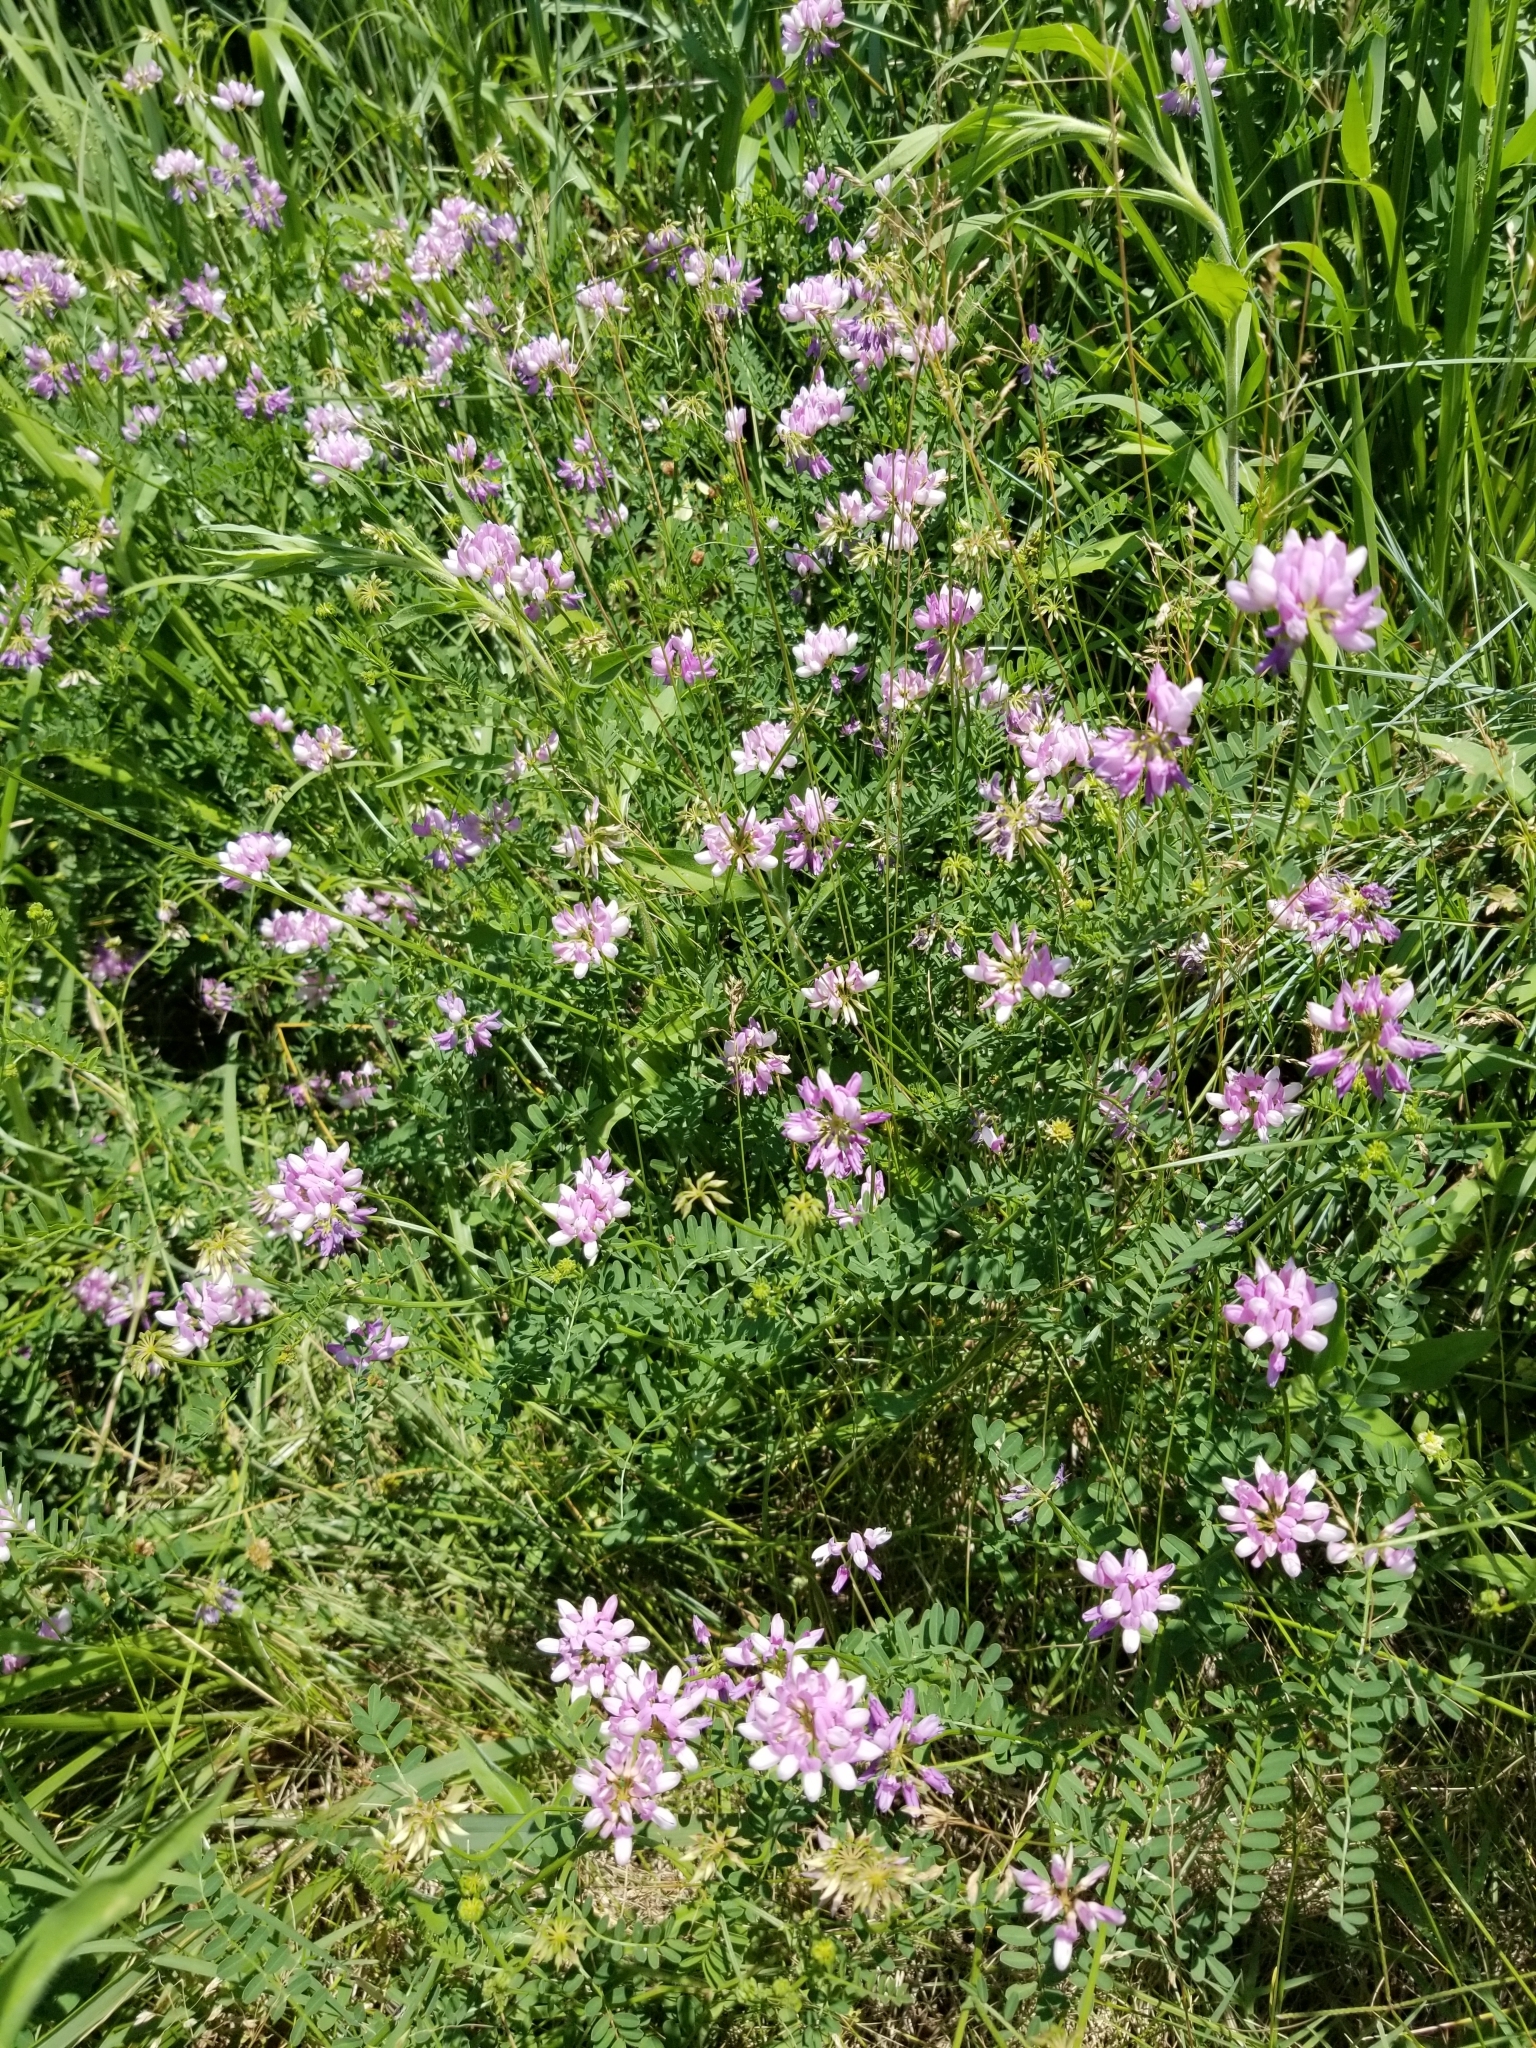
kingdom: Plantae
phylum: Tracheophyta
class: Magnoliopsida
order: Fabales
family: Fabaceae
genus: Coronilla
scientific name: Coronilla varia
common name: Crownvetch
